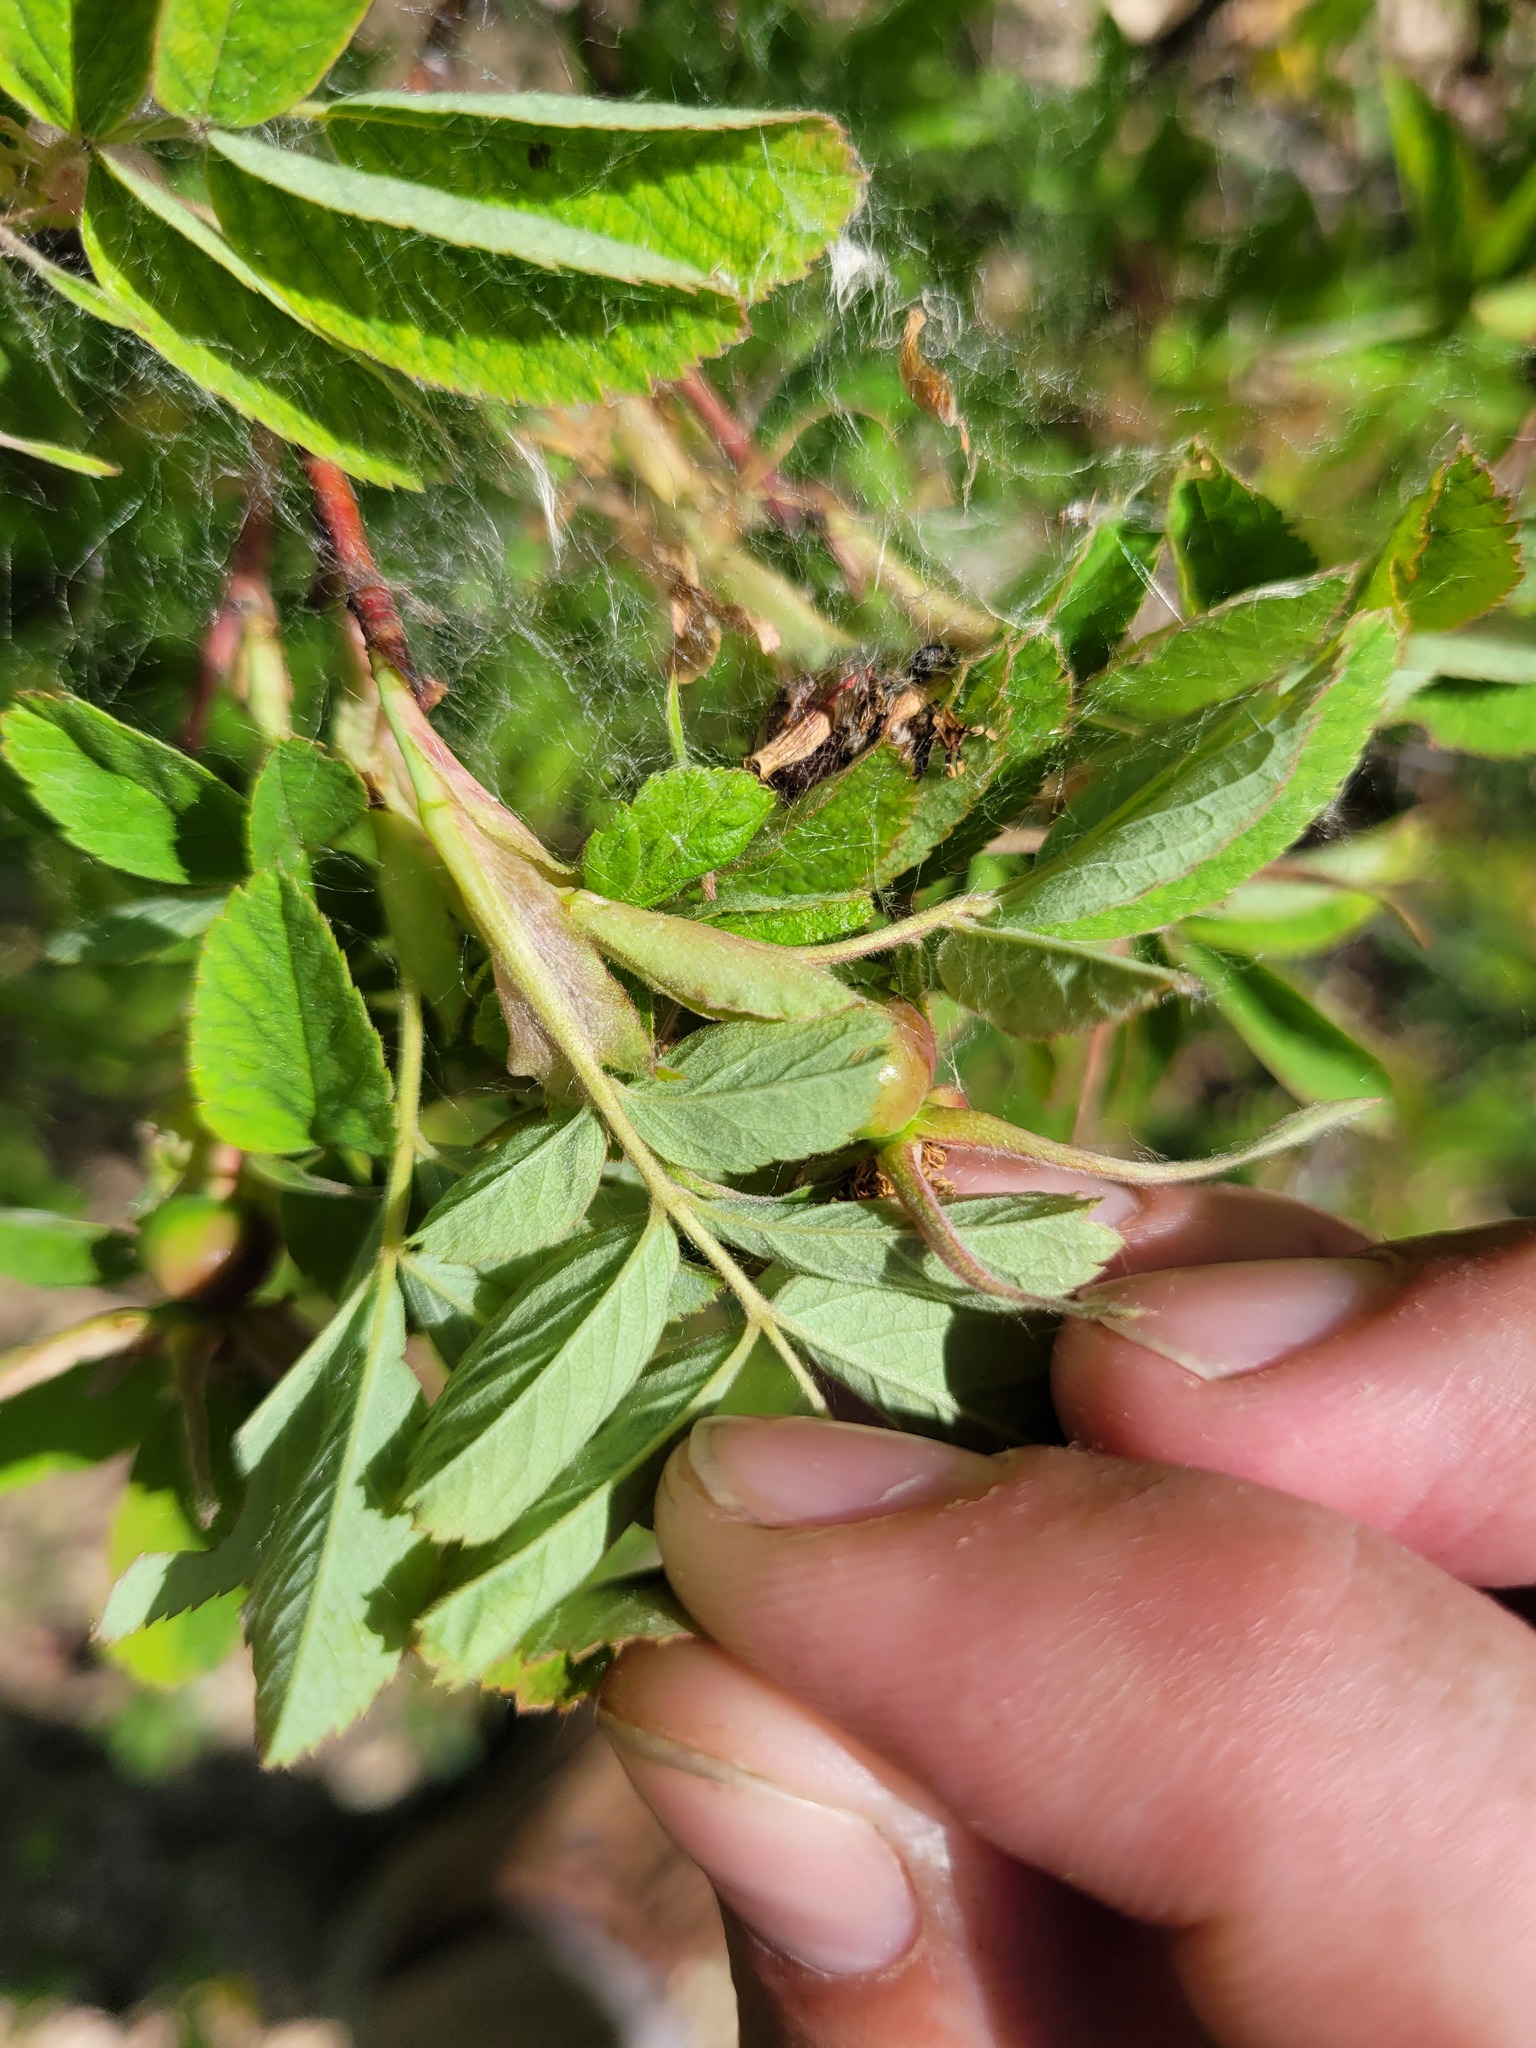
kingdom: Plantae
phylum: Tracheophyta
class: Magnoliopsida
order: Rosales
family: Rosaceae
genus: Rosa
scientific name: Rosa majalis
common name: Cinnamon rose
